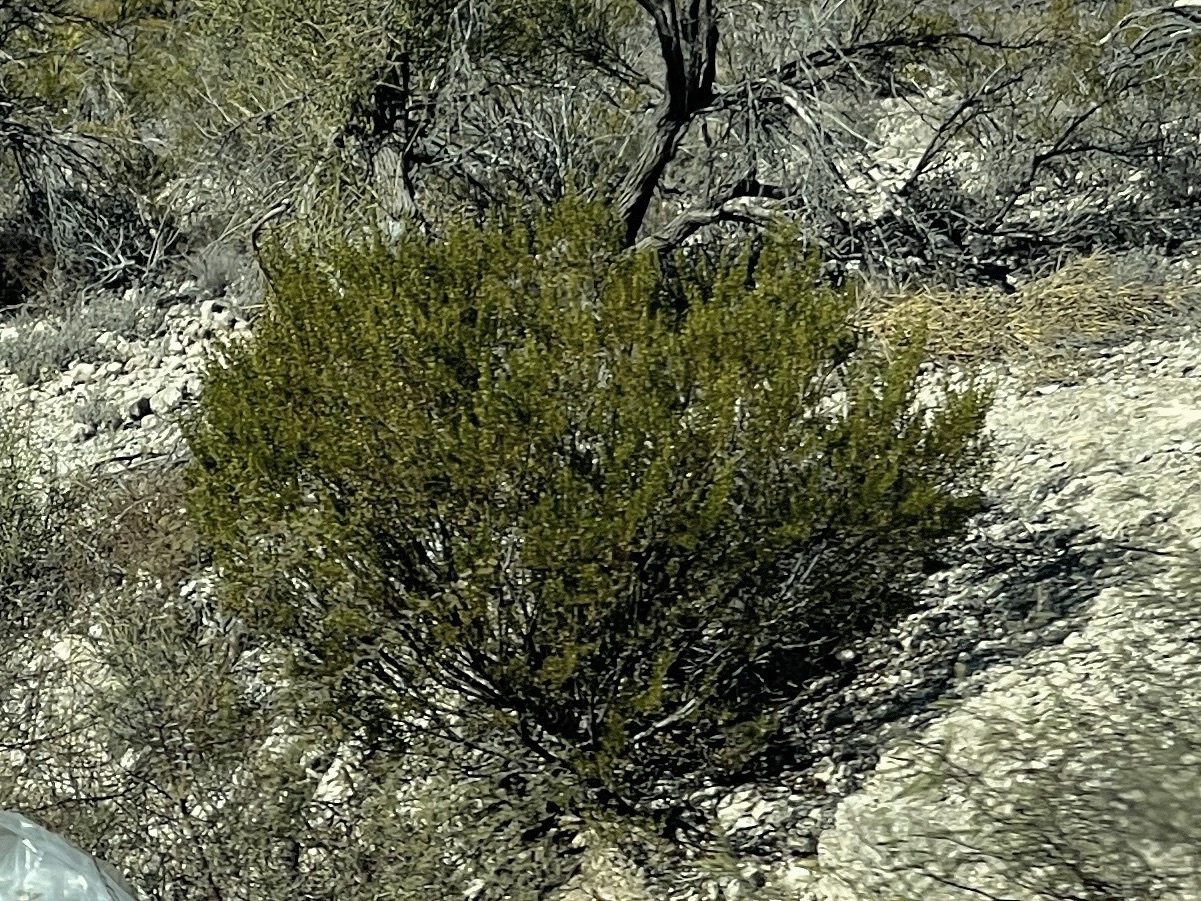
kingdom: Plantae
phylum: Tracheophyta
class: Magnoliopsida
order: Zygophyllales
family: Zygophyllaceae
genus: Larrea
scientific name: Larrea tridentata
